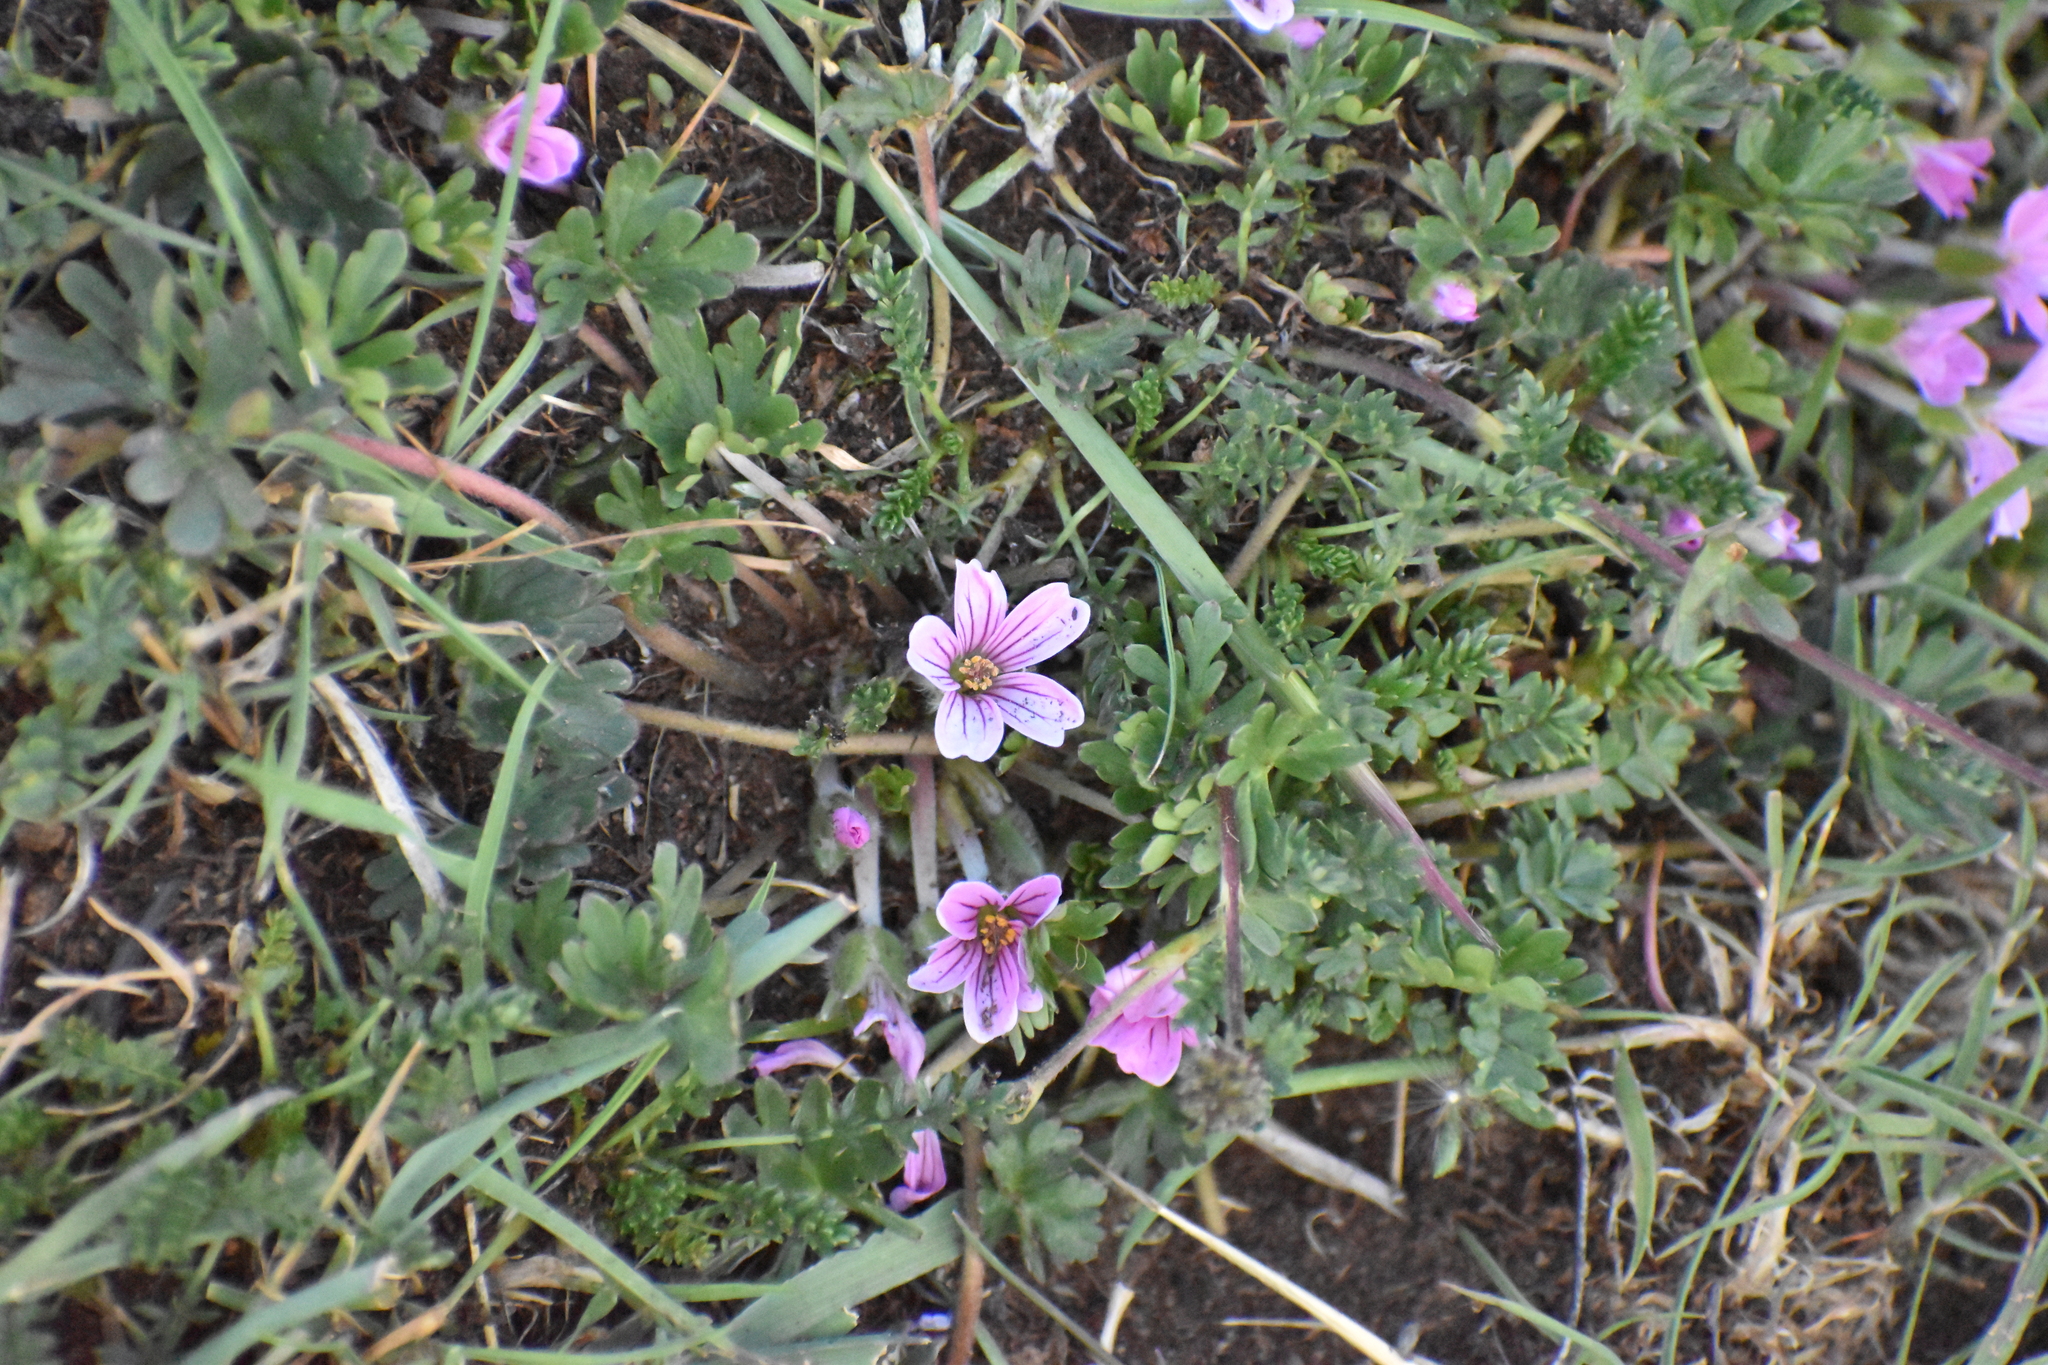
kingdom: Plantae
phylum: Tracheophyta
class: Magnoliopsida
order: Geraniales
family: Geraniaceae
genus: Geranium
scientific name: Geranium sessiliflorum
